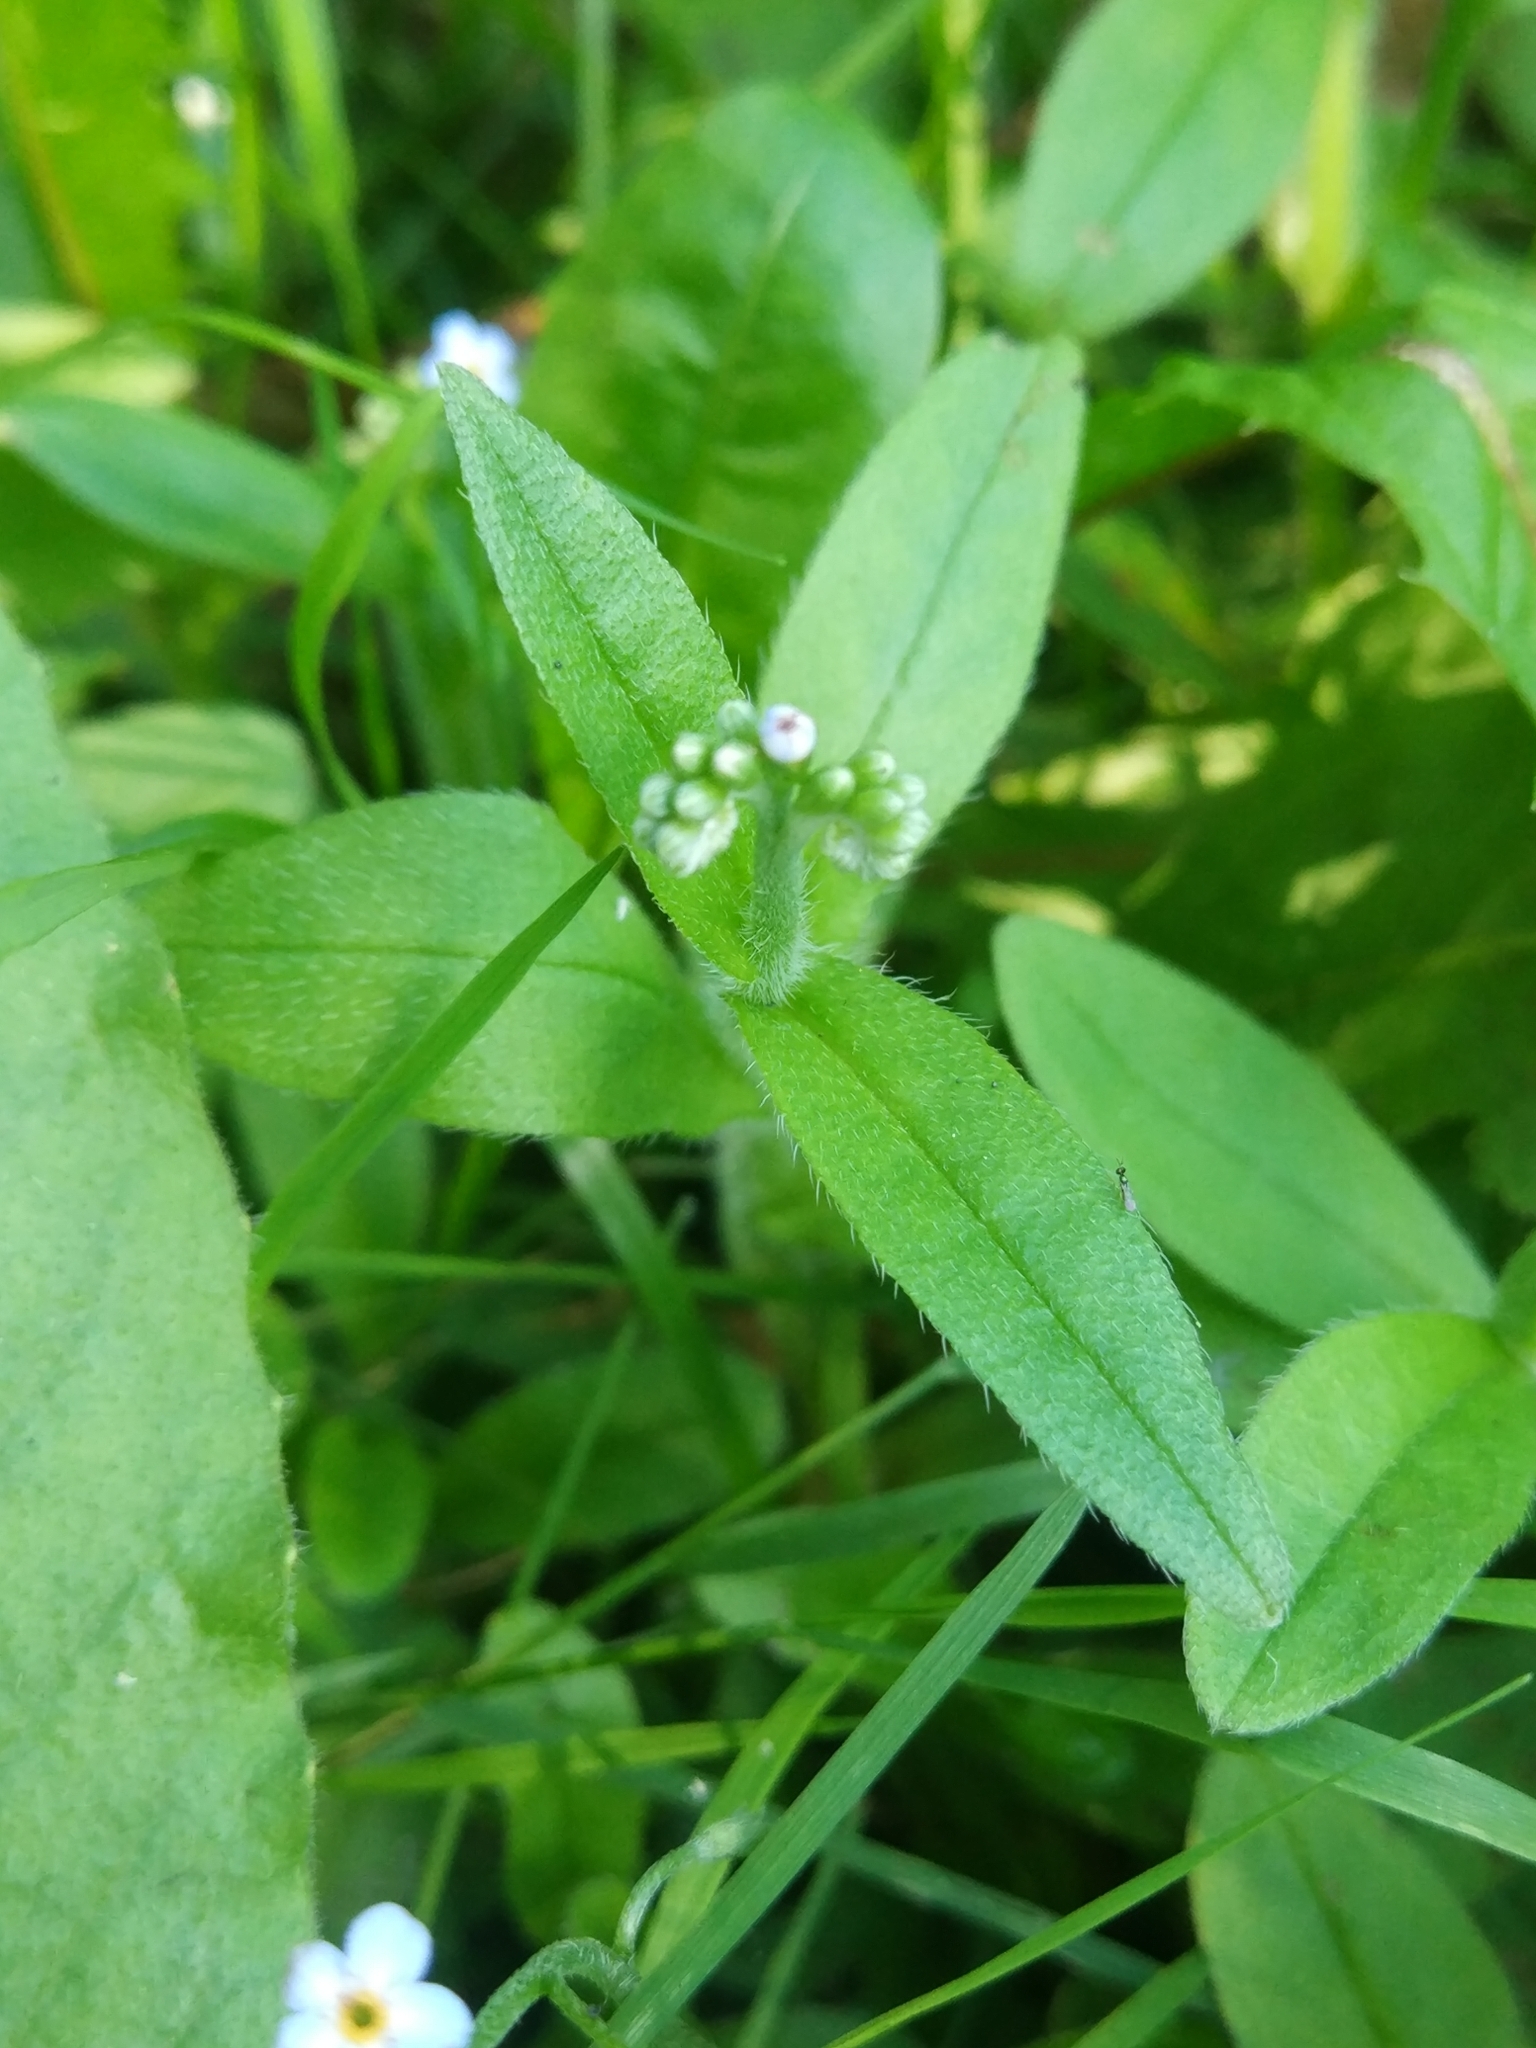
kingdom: Plantae
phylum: Tracheophyta
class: Magnoliopsida
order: Boraginales
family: Boraginaceae
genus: Myosotis
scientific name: Myosotis scorpioides
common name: Water forget-me-not
